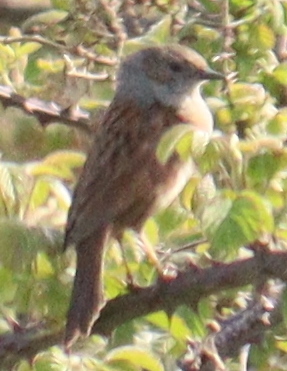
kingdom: Animalia
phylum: Chordata
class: Aves
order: Passeriformes
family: Prunellidae
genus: Prunella
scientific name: Prunella modularis
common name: Dunnock
